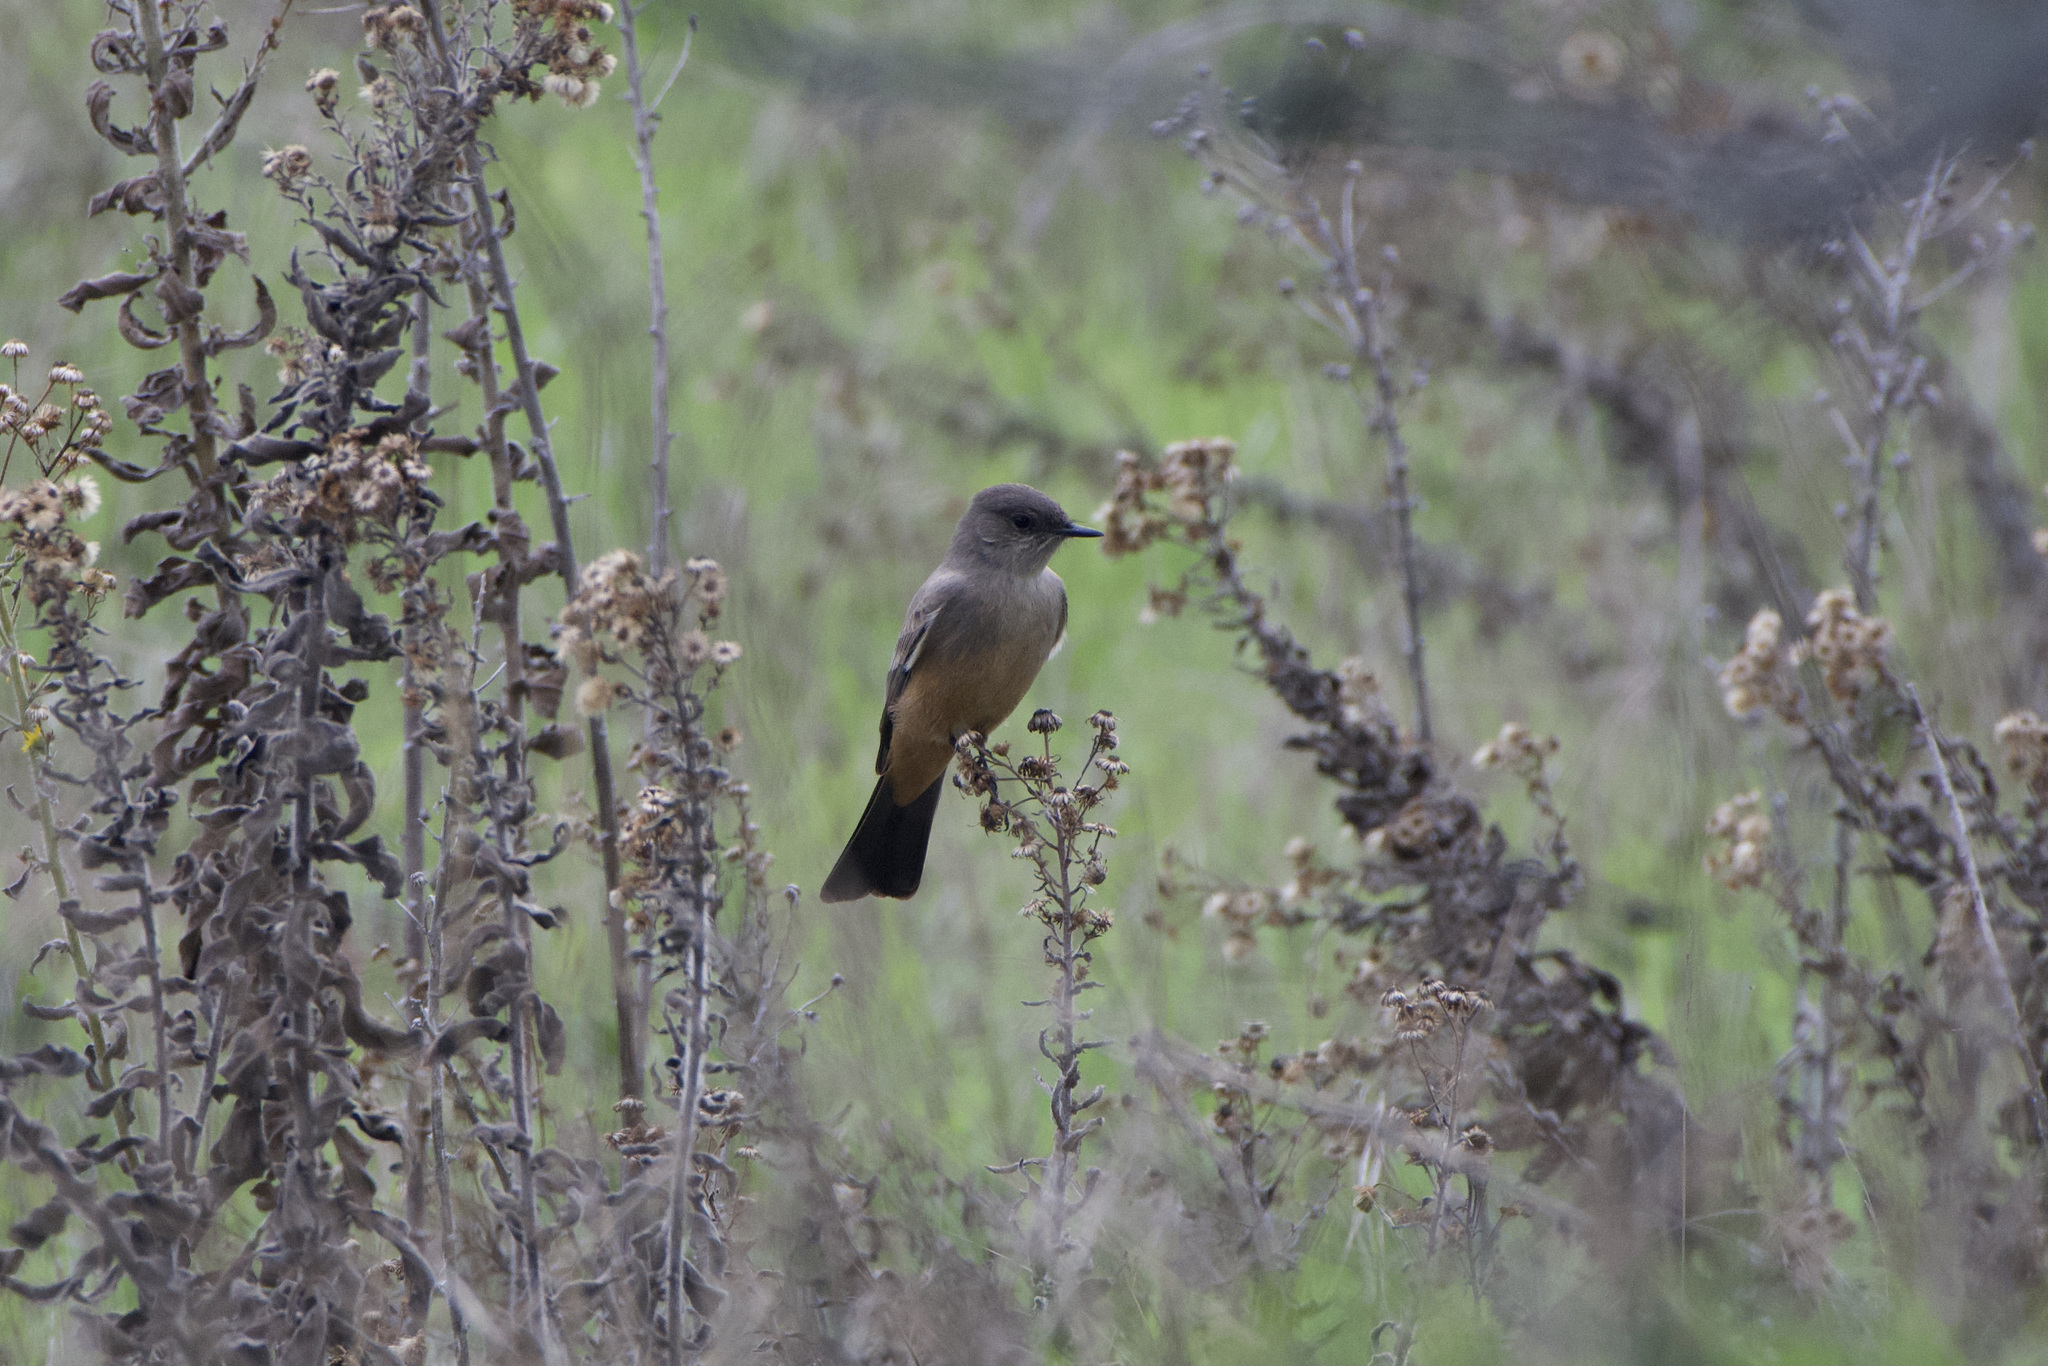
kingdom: Animalia
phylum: Chordata
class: Aves
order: Passeriformes
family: Tyrannidae
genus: Sayornis
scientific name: Sayornis saya
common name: Say's phoebe
